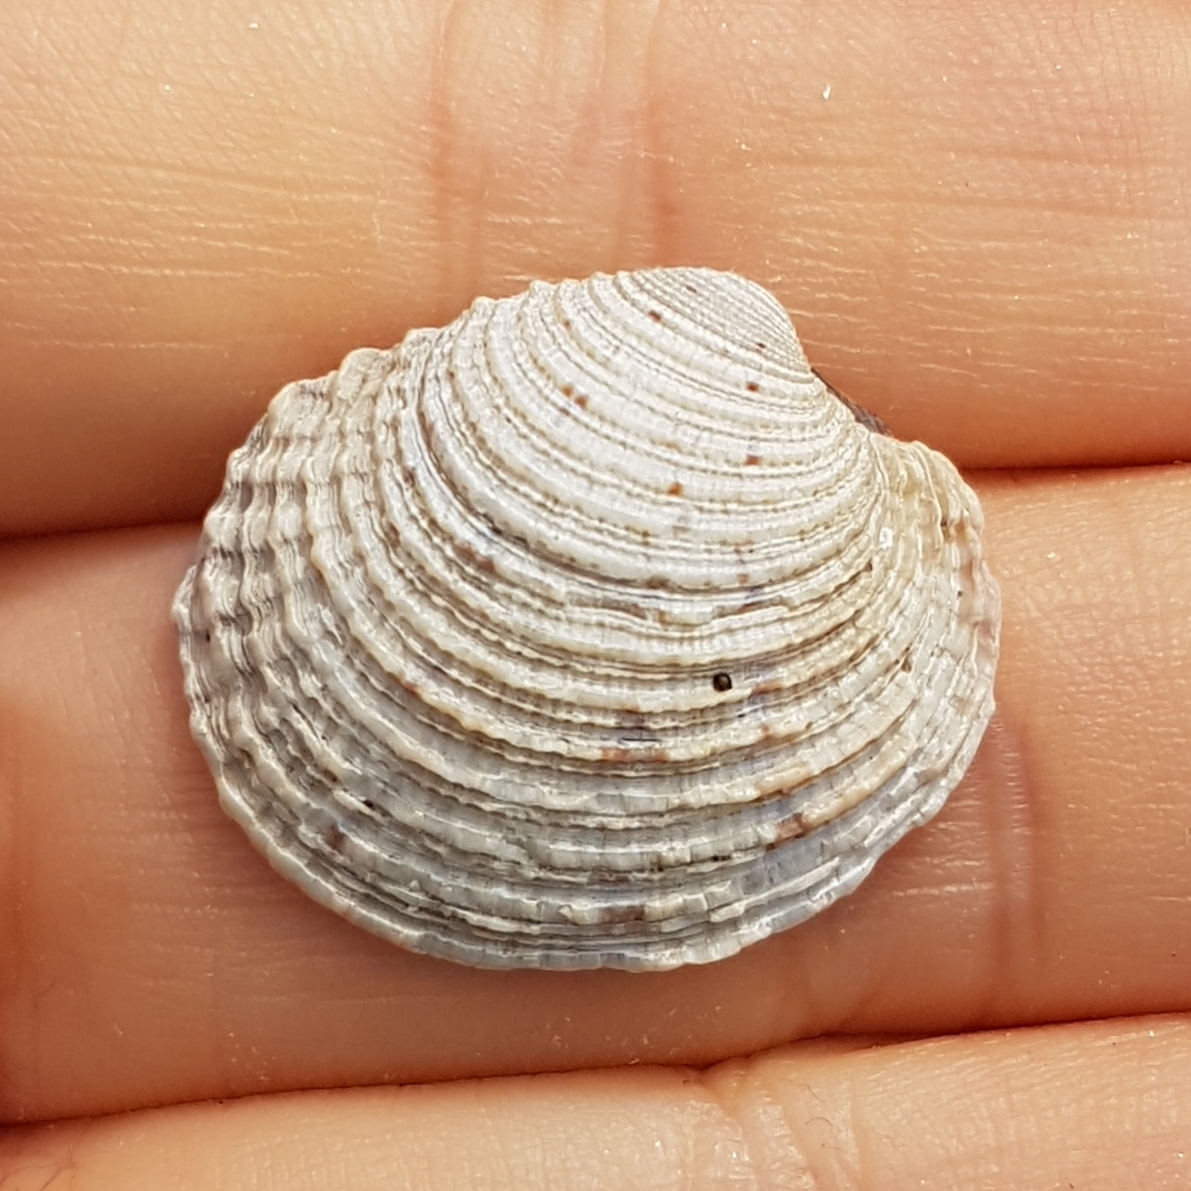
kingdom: Animalia
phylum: Mollusca
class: Bivalvia
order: Venerida
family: Veneridae
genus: Venus
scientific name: Venus verrucosa
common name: Warty venus
